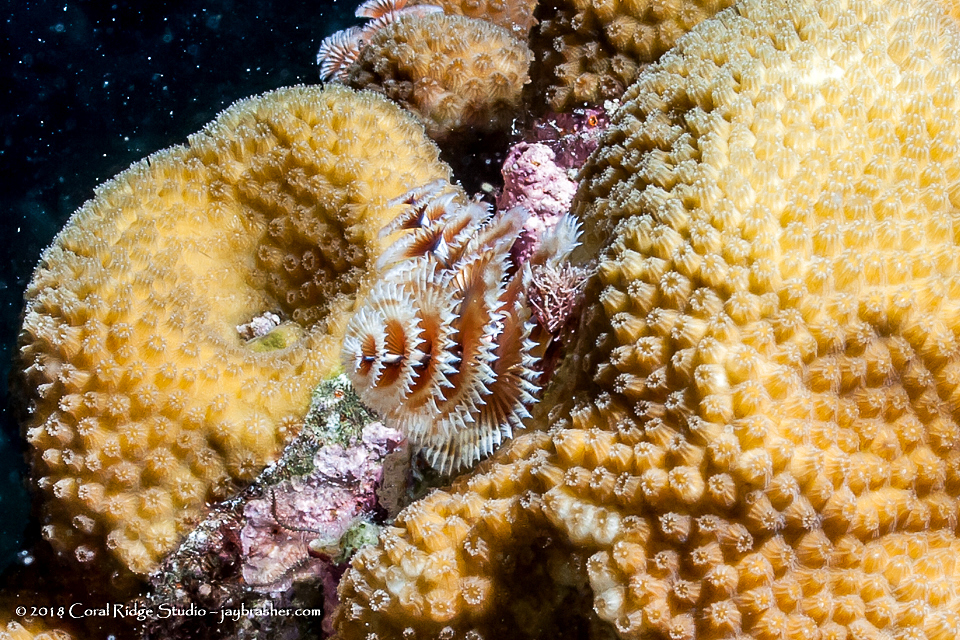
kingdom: Animalia
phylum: Annelida
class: Polychaeta
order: Sabellida
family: Serpulidae
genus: Spirobranchus
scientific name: Spirobranchus giganteus
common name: Christmas tree worm
